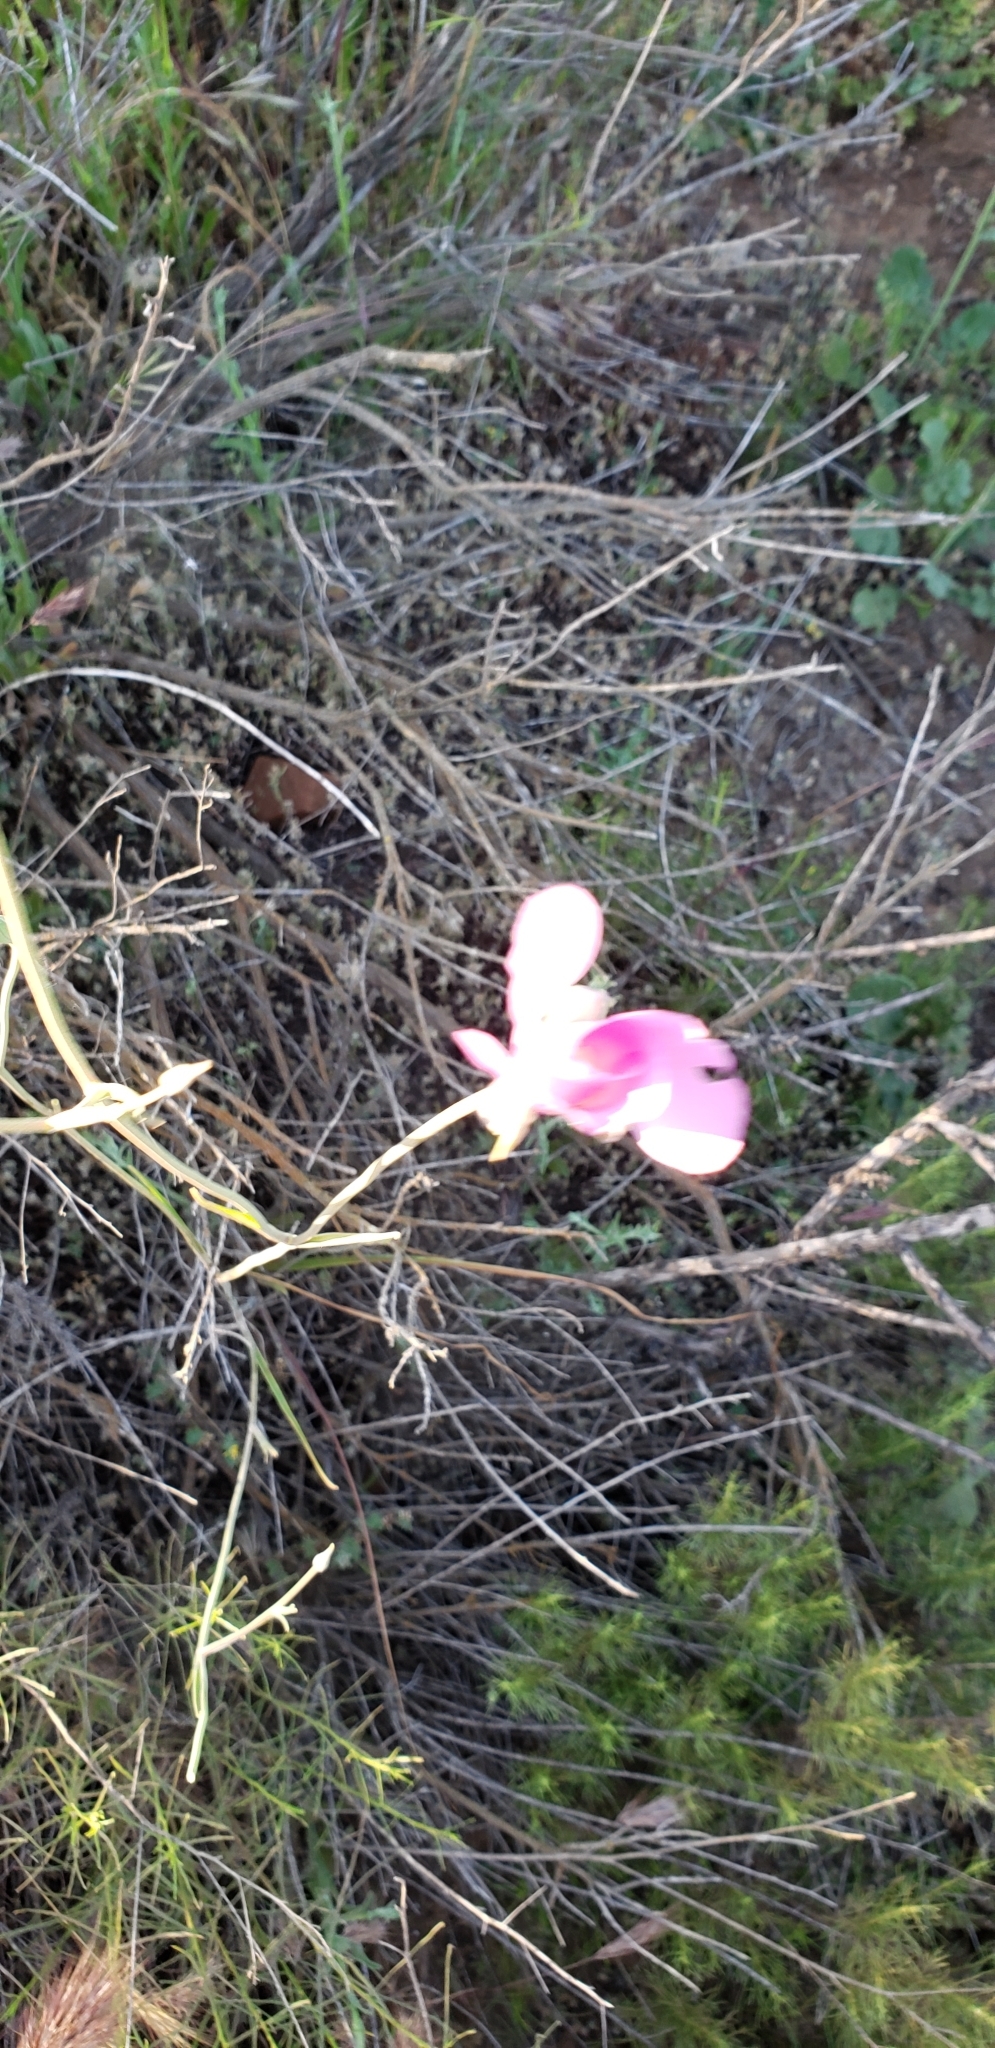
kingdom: Plantae
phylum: Tracheophyta
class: Liliopsida
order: Liliales
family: Liliaceae
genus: Calochortus
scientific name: Calochortus splendens
